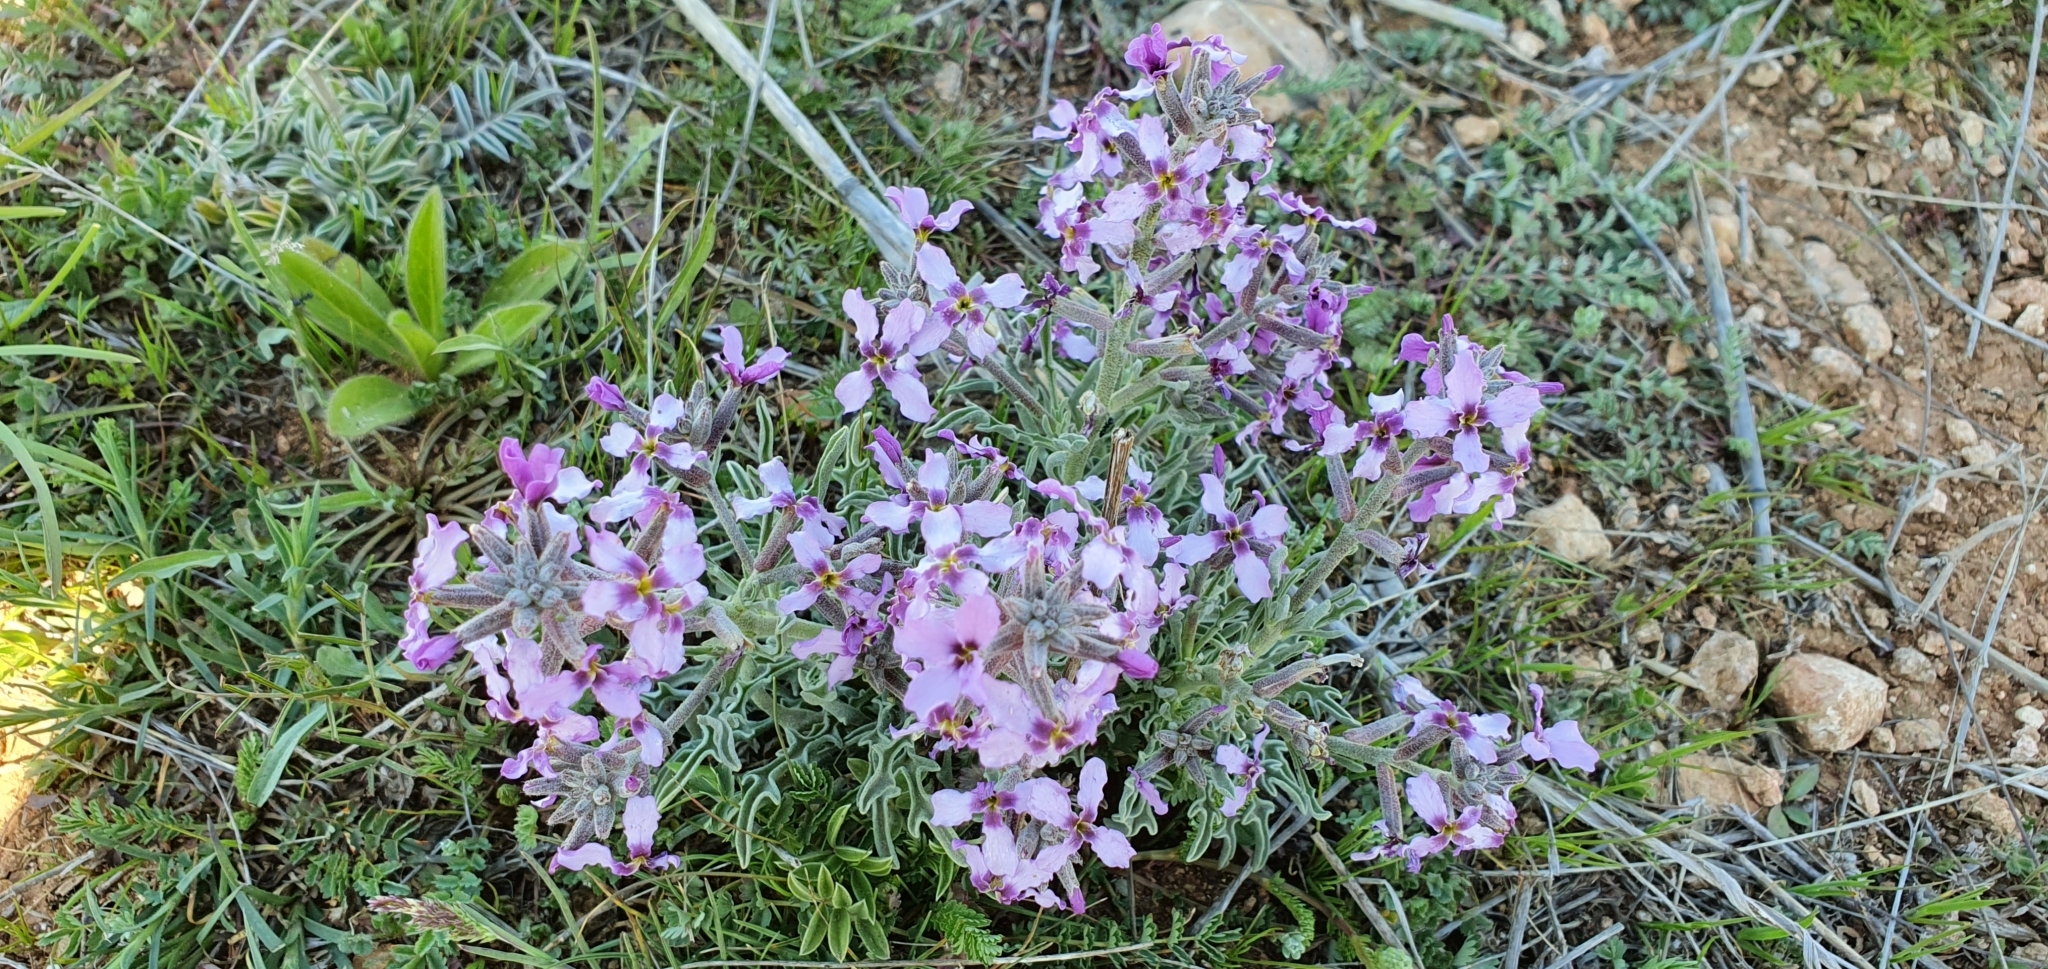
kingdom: Plantae
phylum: Tracheophyta
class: Magnoliopsida
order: Brassicales
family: Brassicaceae
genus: Matthiola
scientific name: Matthiola fruticulosa
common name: Sad stock
